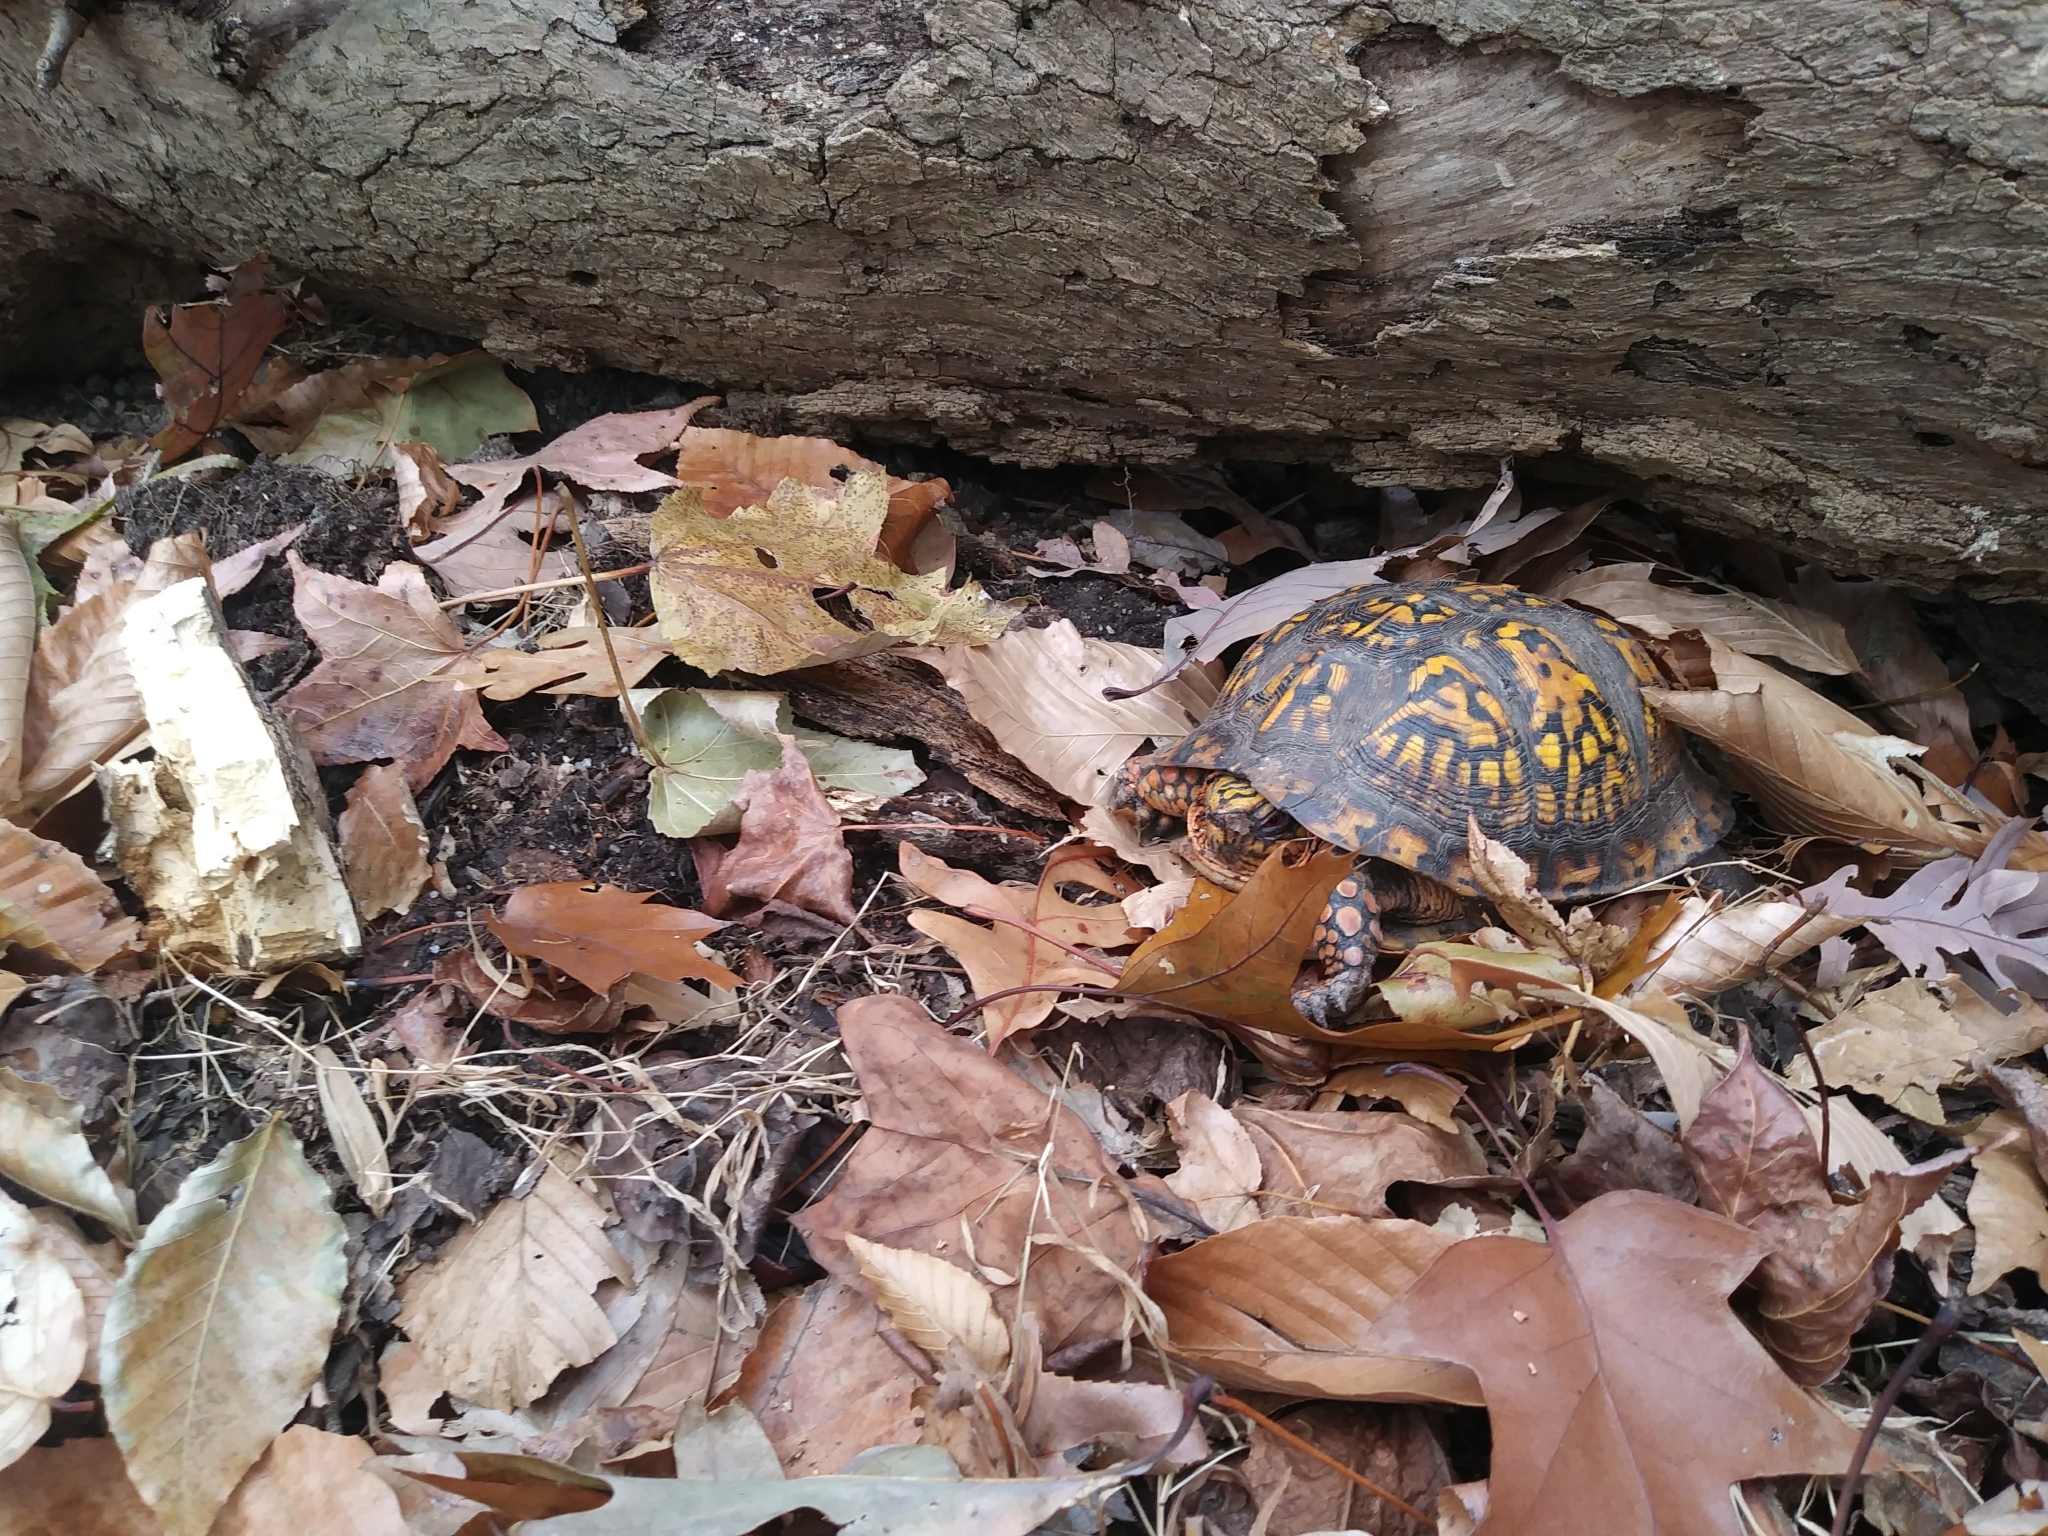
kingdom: Animalia
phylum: Chordata
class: Testudines
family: Emydidae
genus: Terrapene
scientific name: Terrapene carolina
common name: Common box turtle
